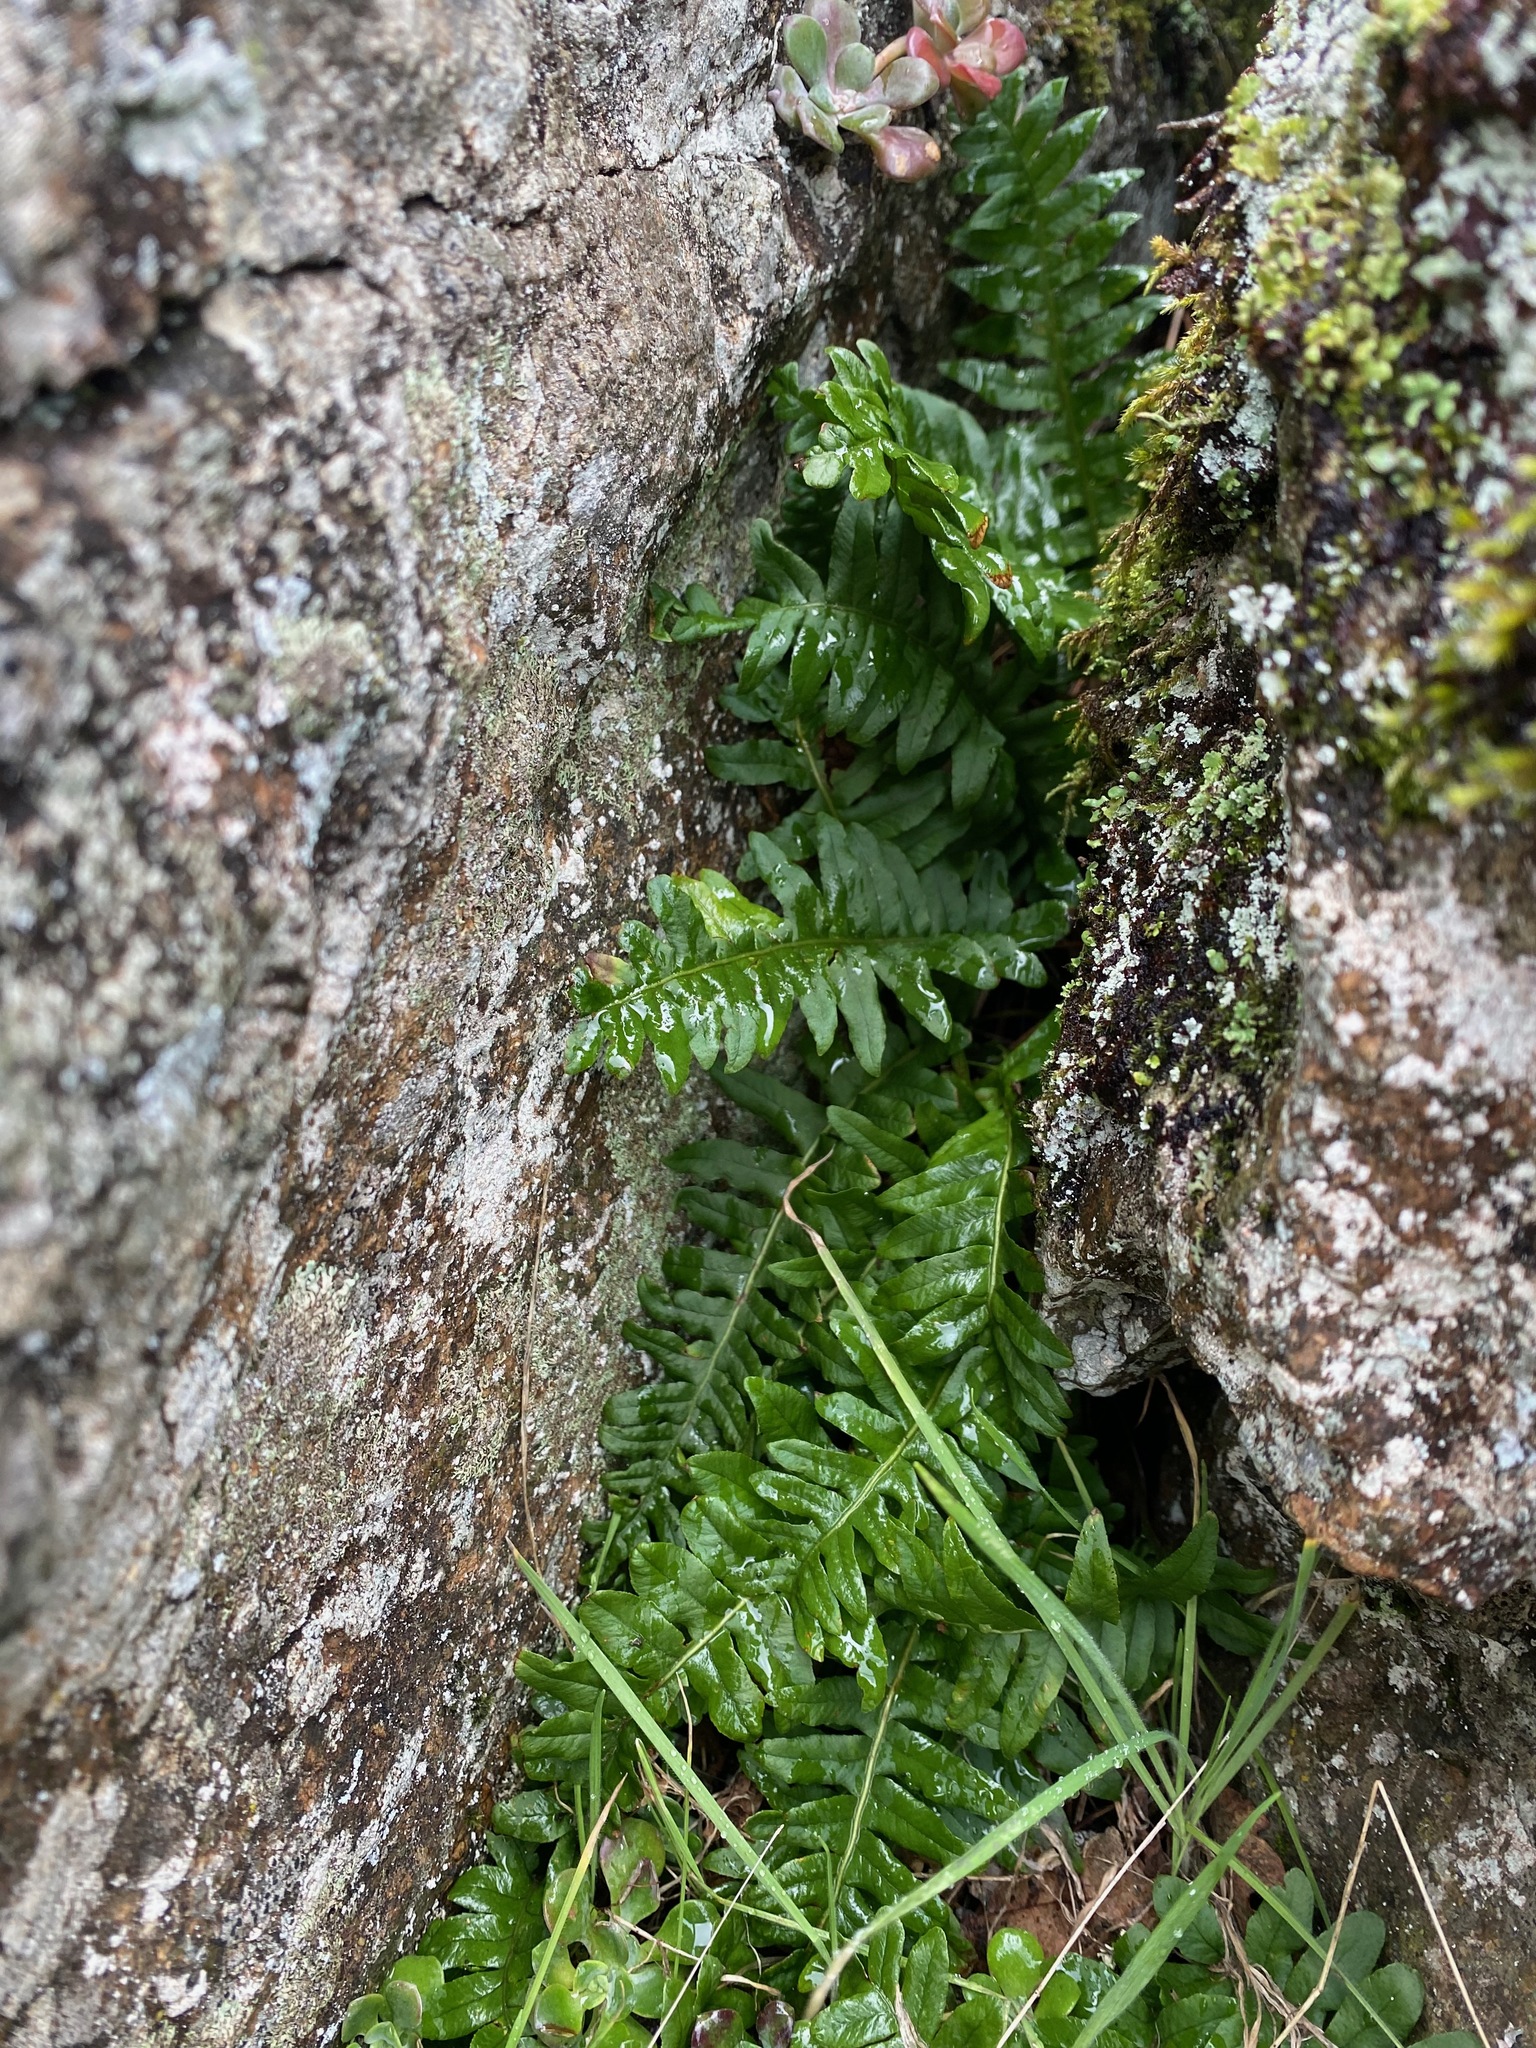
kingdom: Plantae
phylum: Tracheophyta
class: Polypodiopsida
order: Polypodiales
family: Polypodiaceae
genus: Polypodium
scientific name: Polypodium glycyrrhiza
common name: Licorice fern
